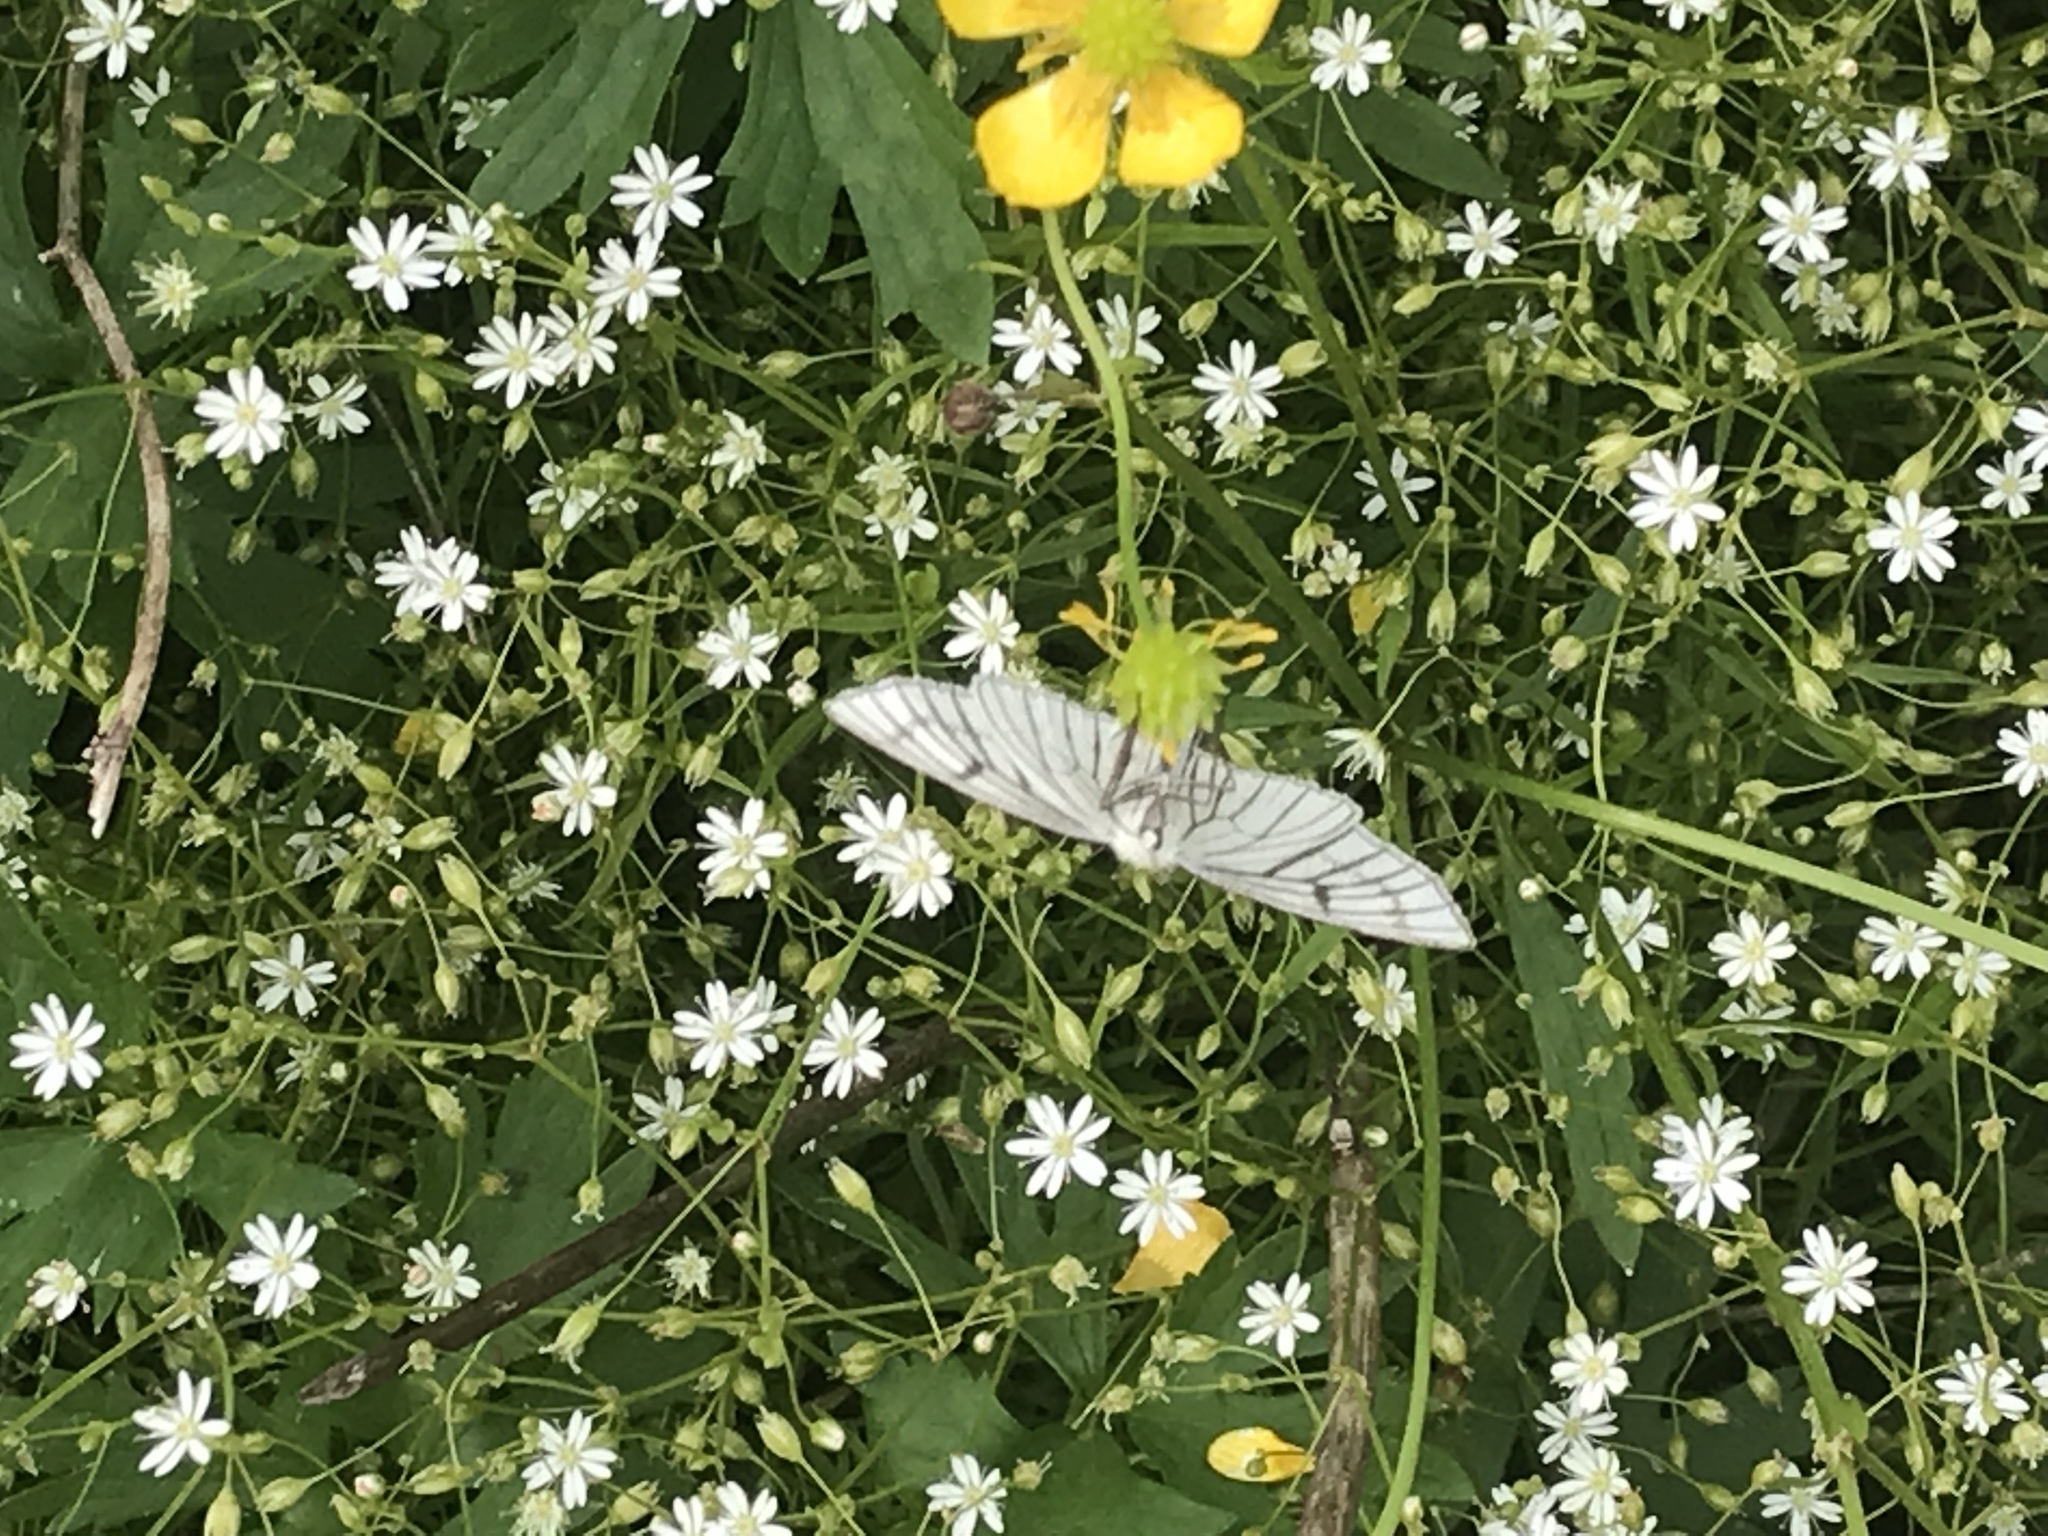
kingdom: Animalia
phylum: Arthropoda
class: Insecta
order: Lepidoptera
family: Geometridae
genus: Siona
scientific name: Siona lineata
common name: Black-veined moth
